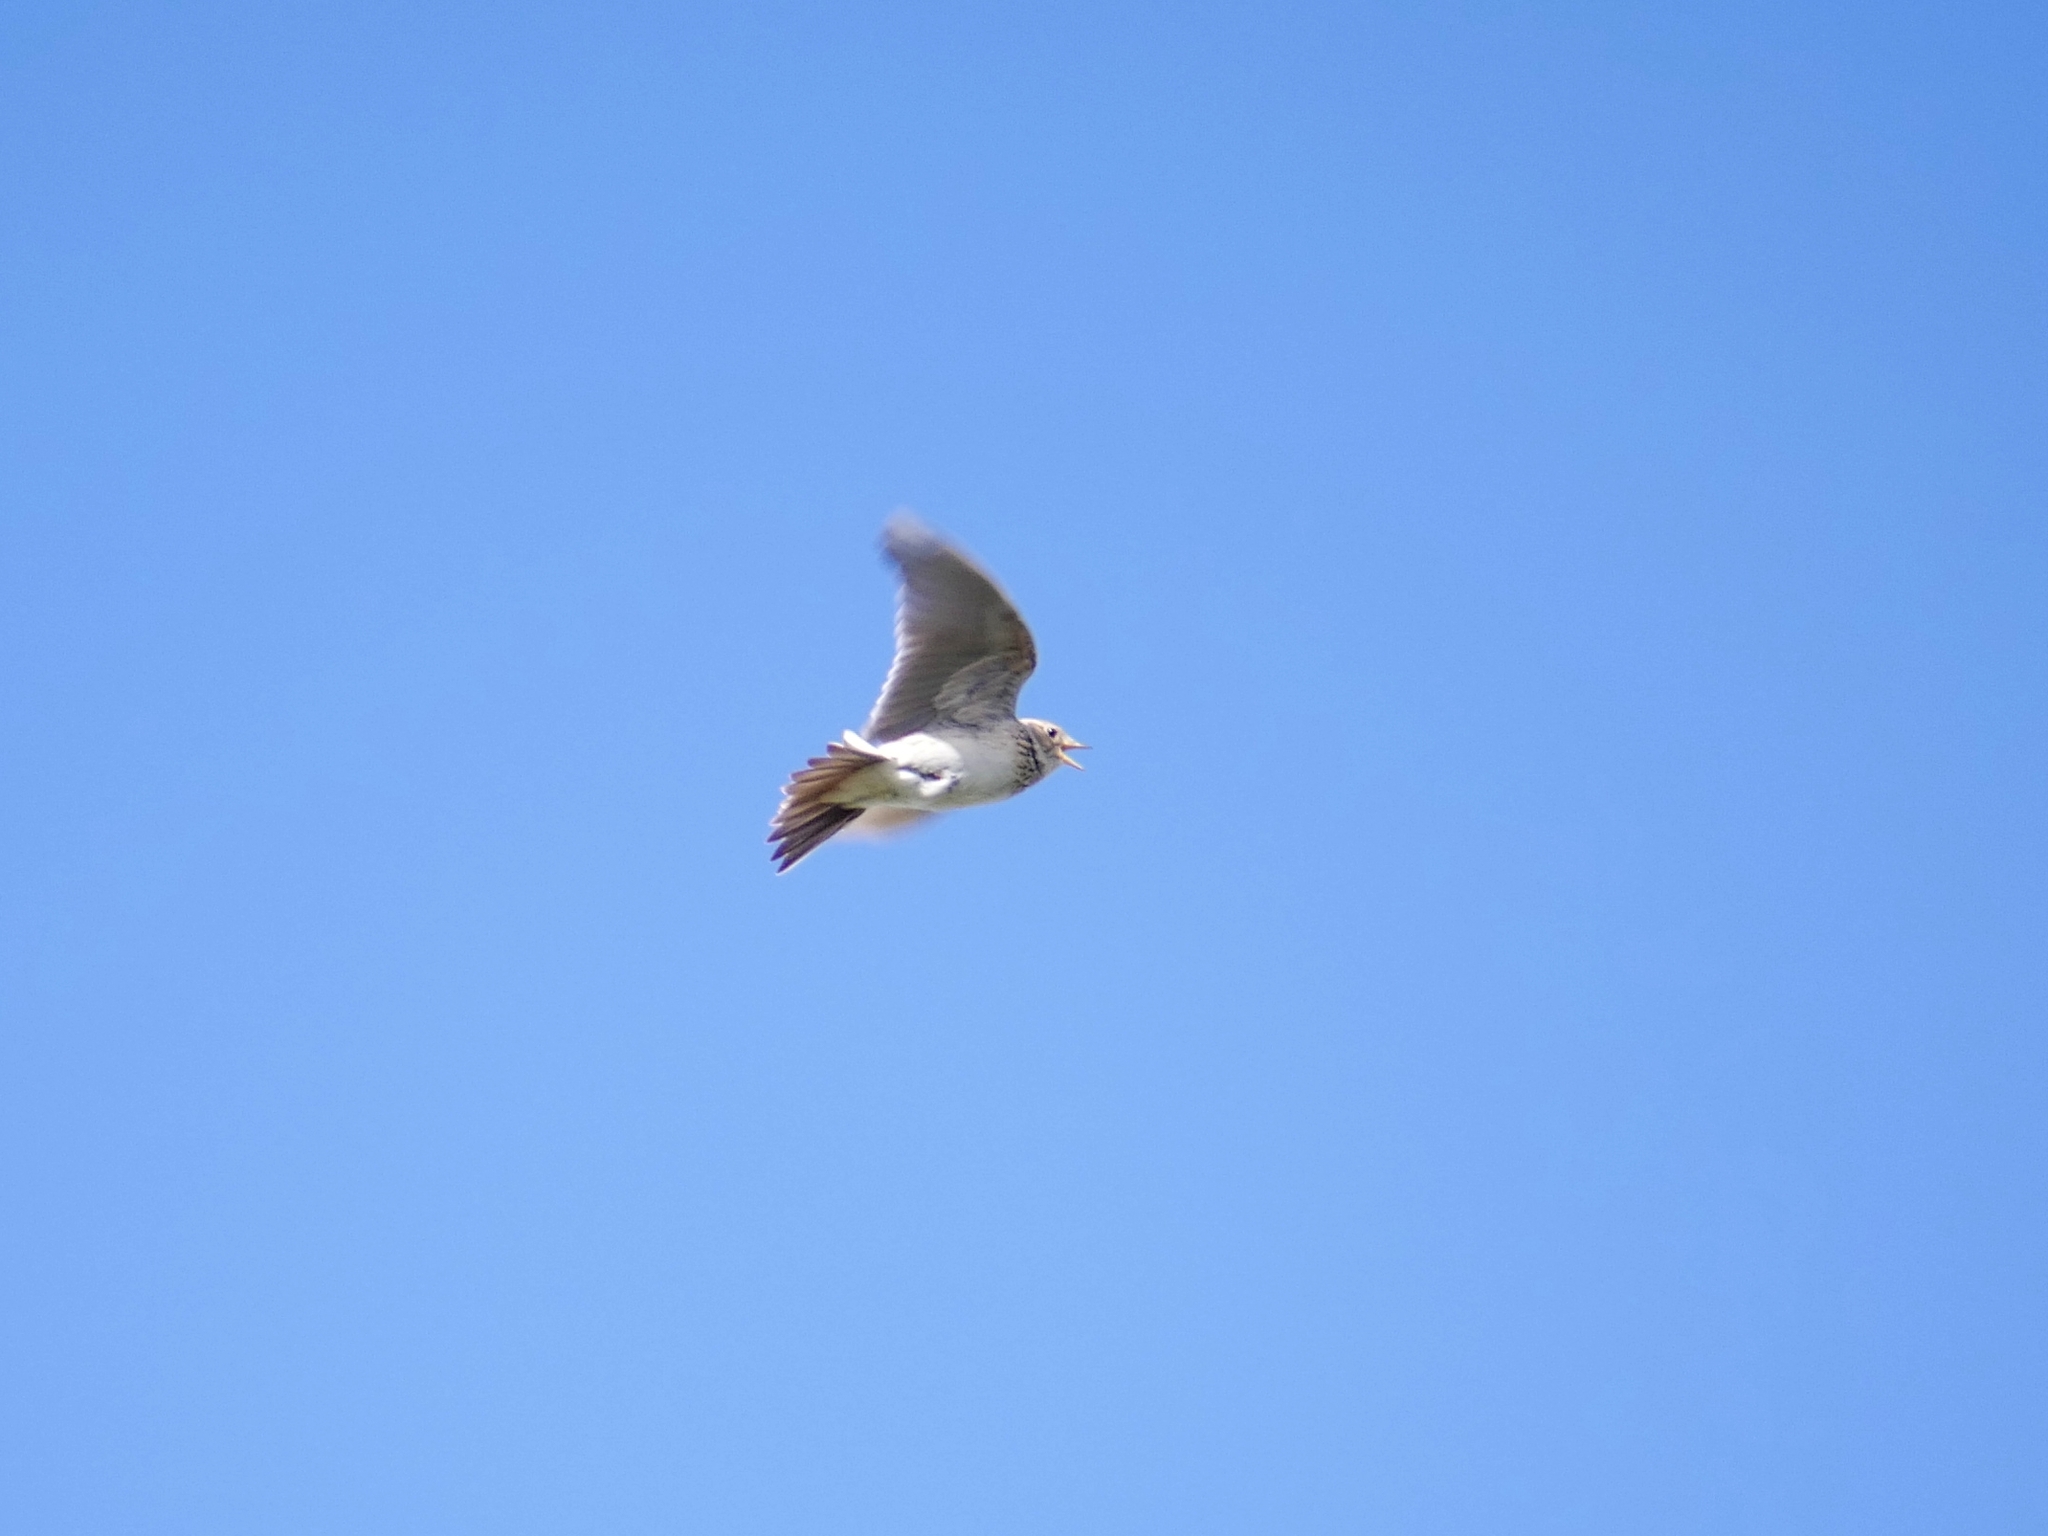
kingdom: Animalia
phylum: Chordata
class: Aves
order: Passeriformes
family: Alaudidae
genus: Alauda
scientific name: Alauda arvensis
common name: Eurasian skylark
